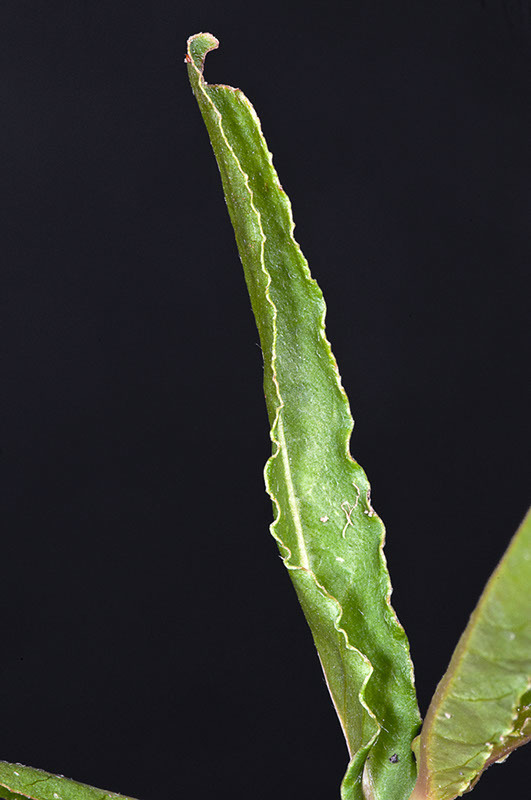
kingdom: Plantae
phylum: Tracheophyta
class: Magnoliopsida
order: Caryophyllales
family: Amaranthaceae
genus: Alternanthera
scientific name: Alternanthera denticulata
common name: Lesser joyweed
